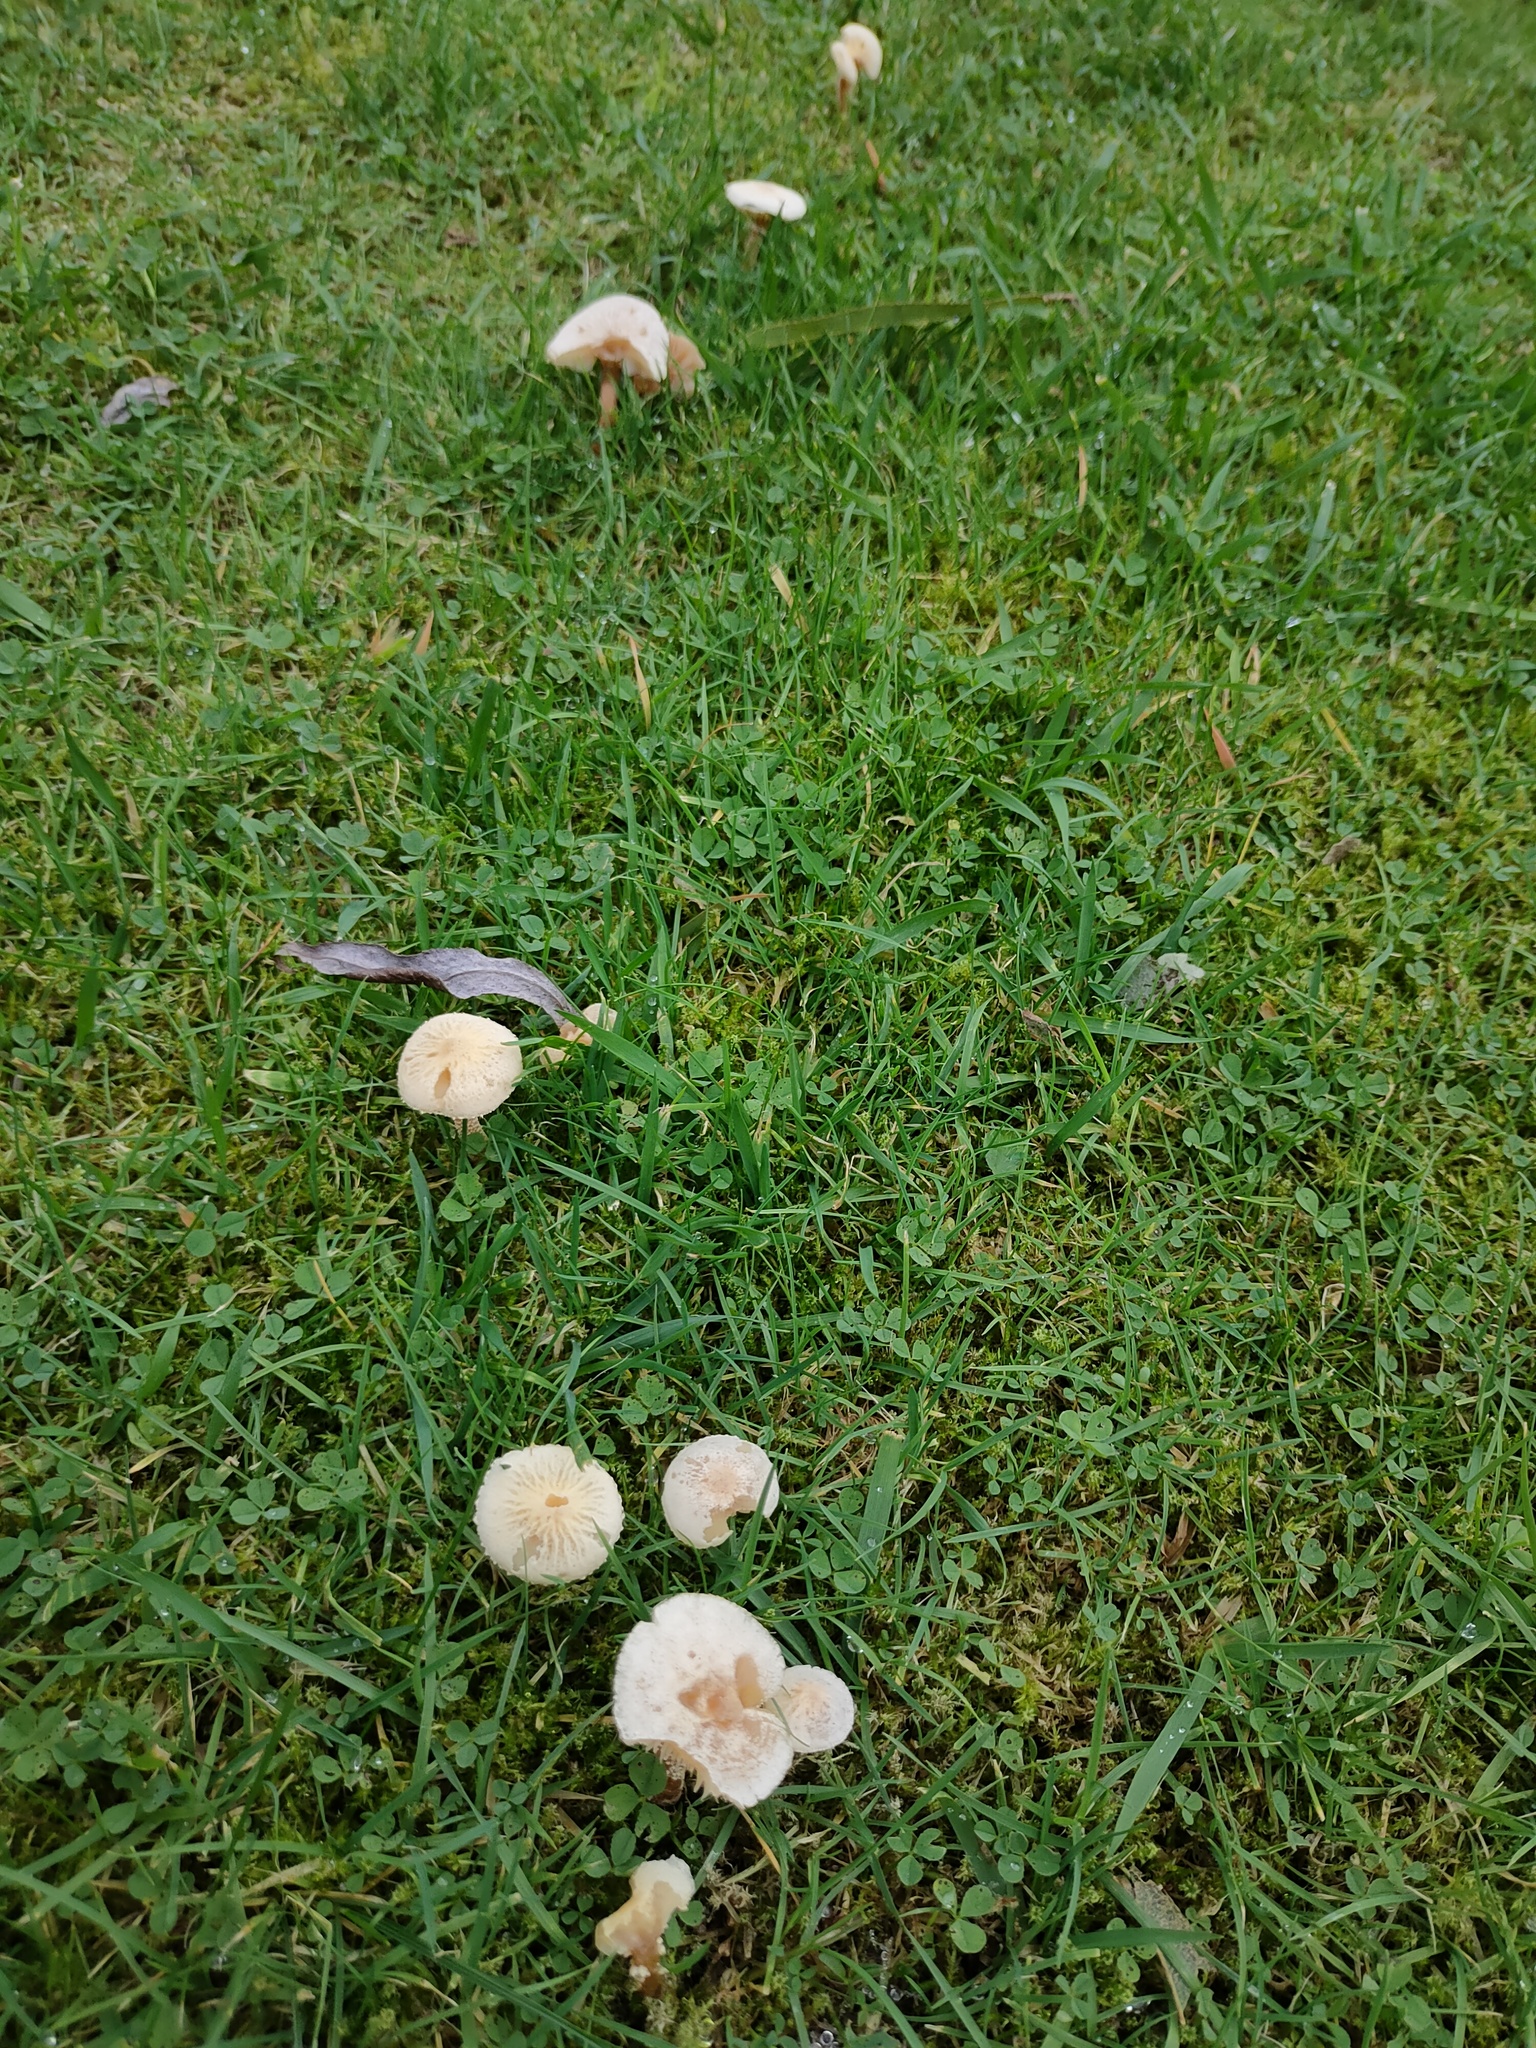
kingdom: Fungi
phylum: Basidiomycota
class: Agaricomycetes
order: Agaricales
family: Tricholomataceae
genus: Cystoderma
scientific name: Cystoderma amianthinum
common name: Earthy powdercap
